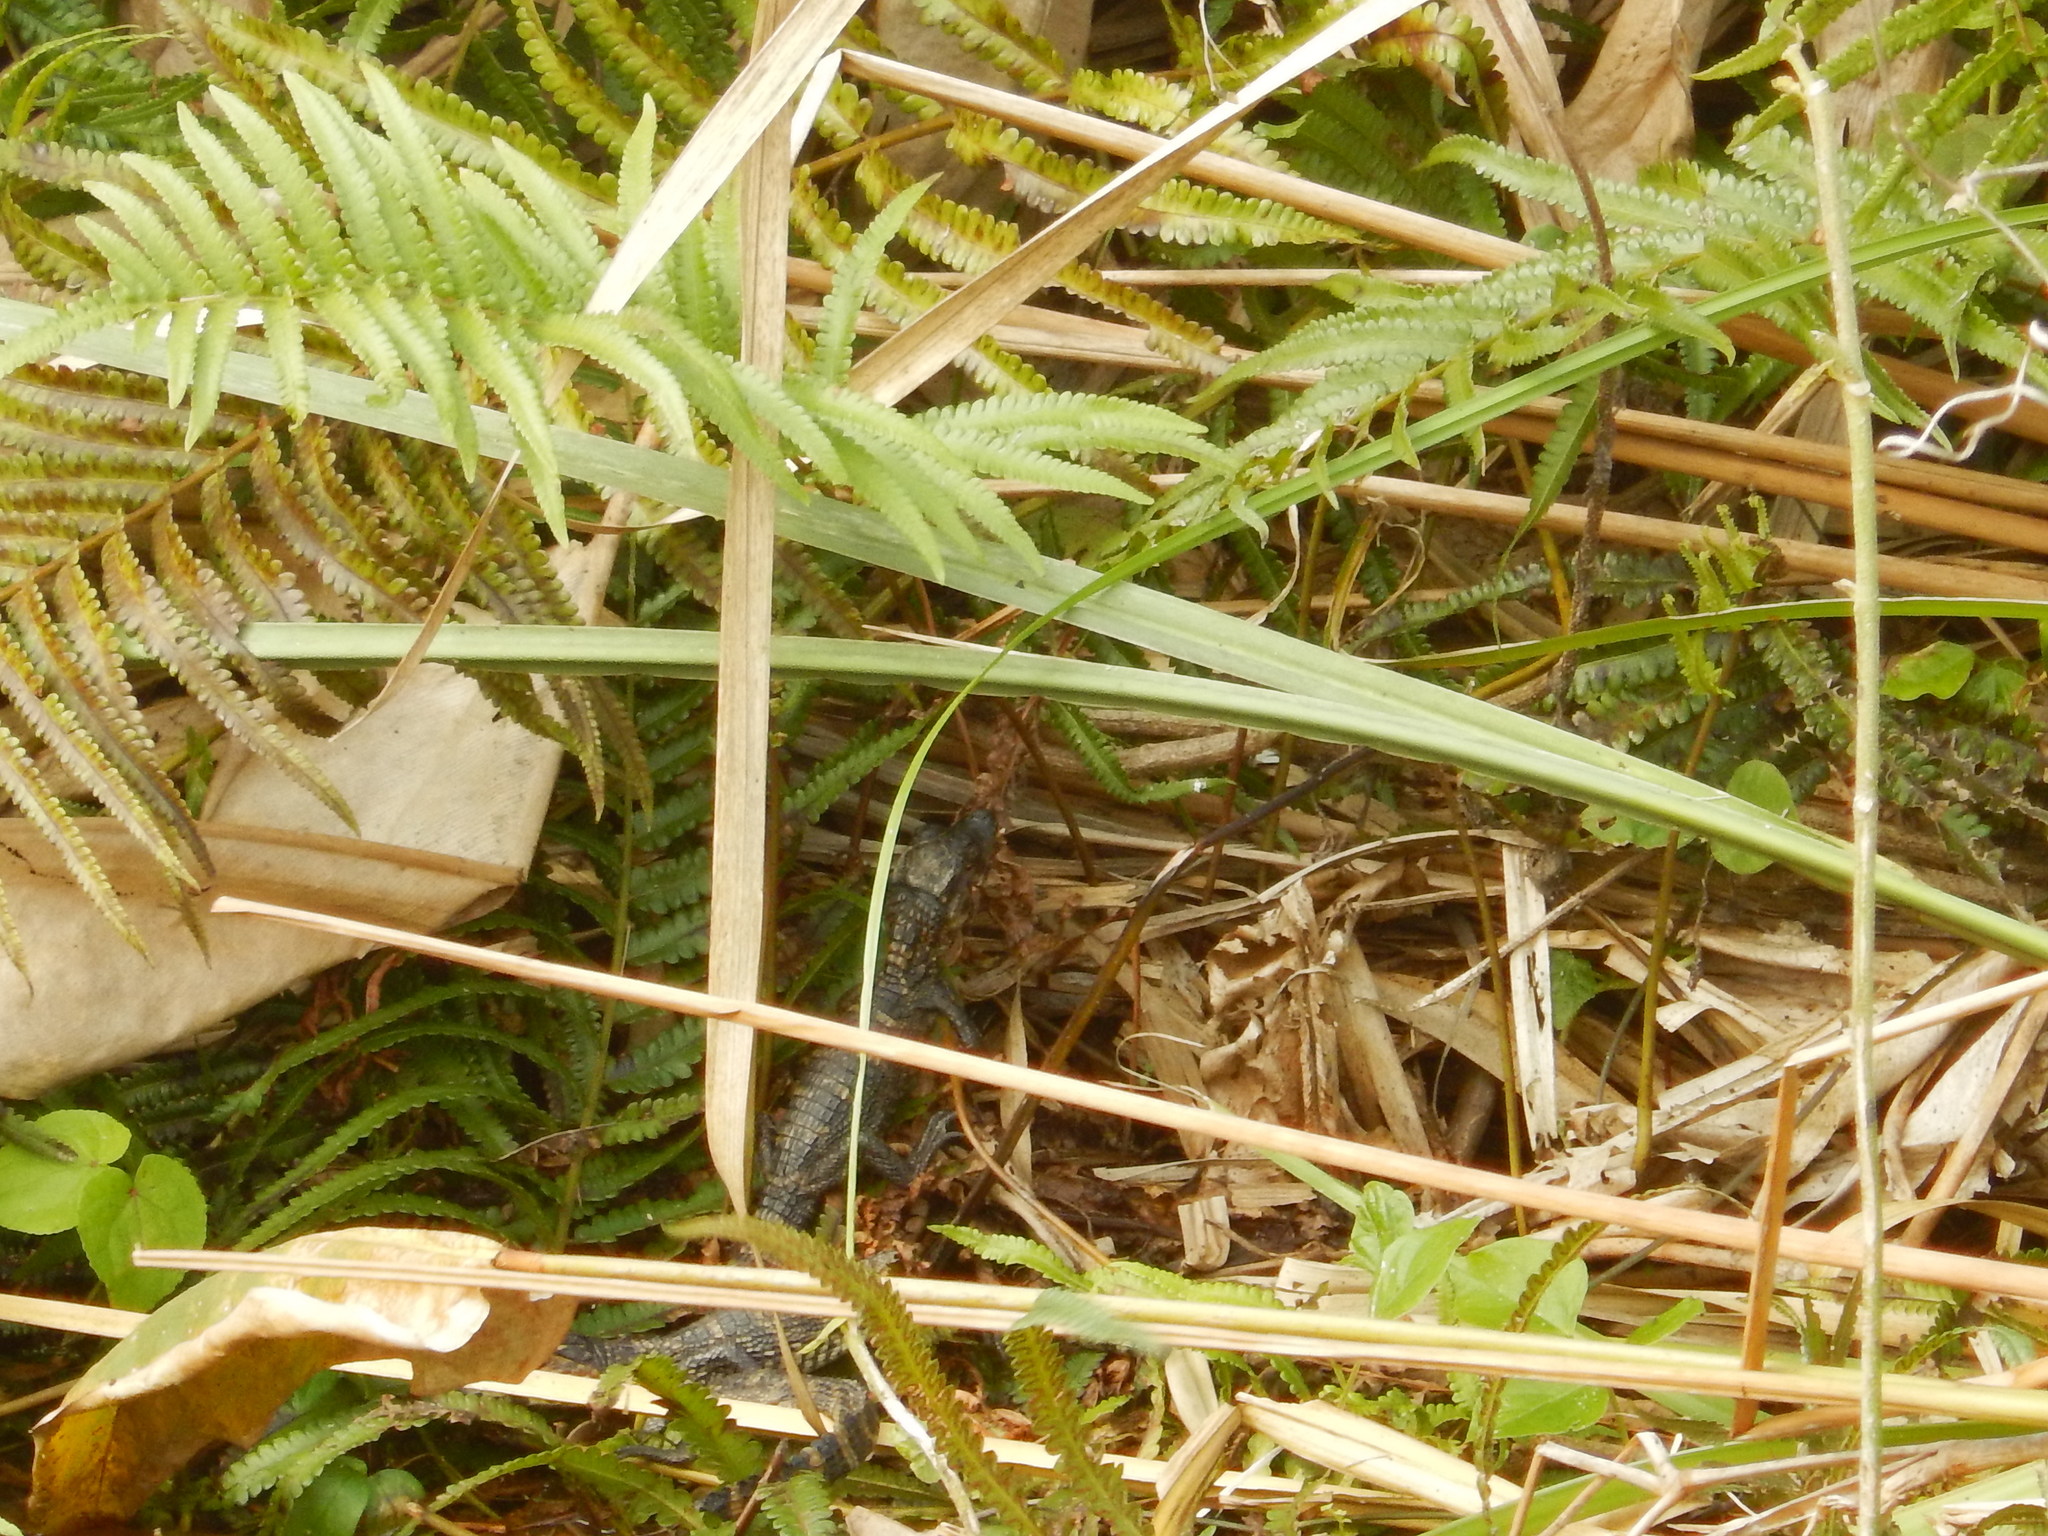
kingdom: Animalia
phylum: Chordata
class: Crocodylia
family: Alligatoridae
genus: Caiman
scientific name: Caiman yacare
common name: Yacare caiman
